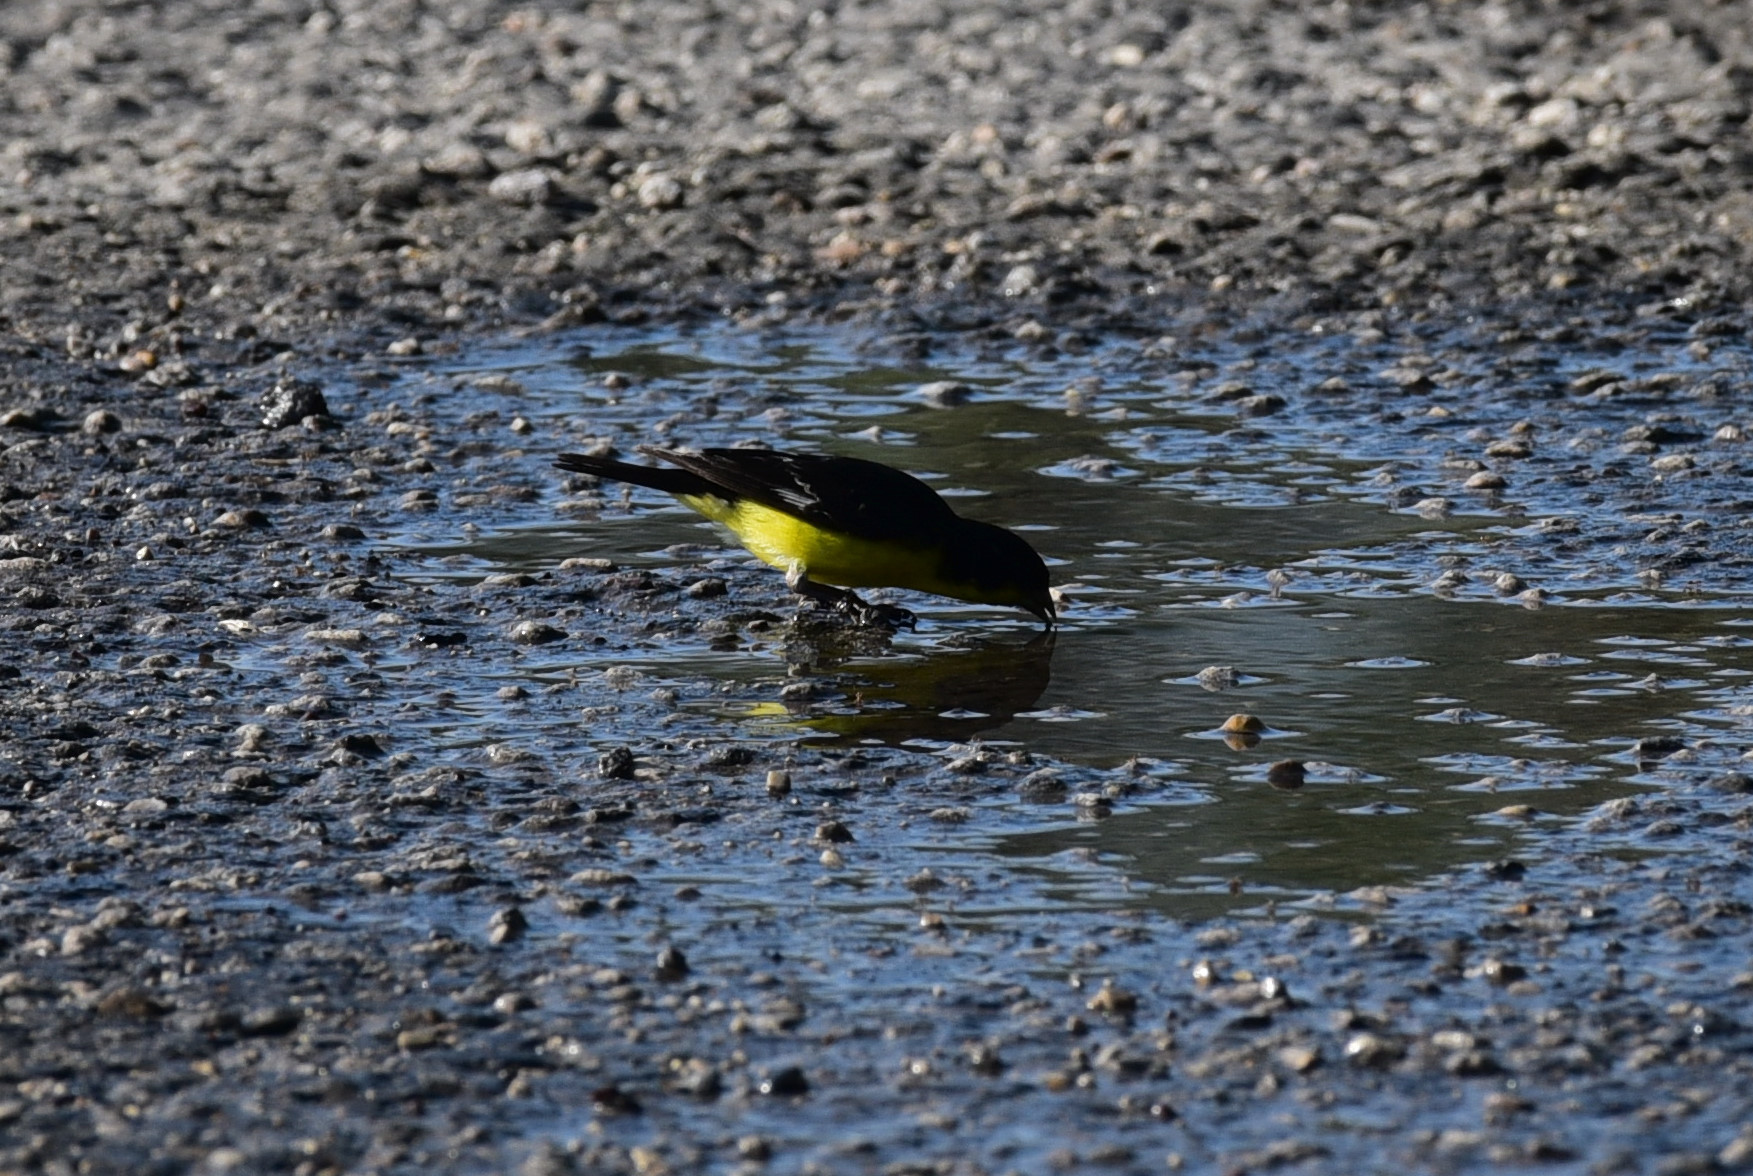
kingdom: Animalia
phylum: Chordata
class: Aves
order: Passeriformes
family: Fringillidae
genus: Spinus
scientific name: Spinus psaltria
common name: Lesser goldfinch
